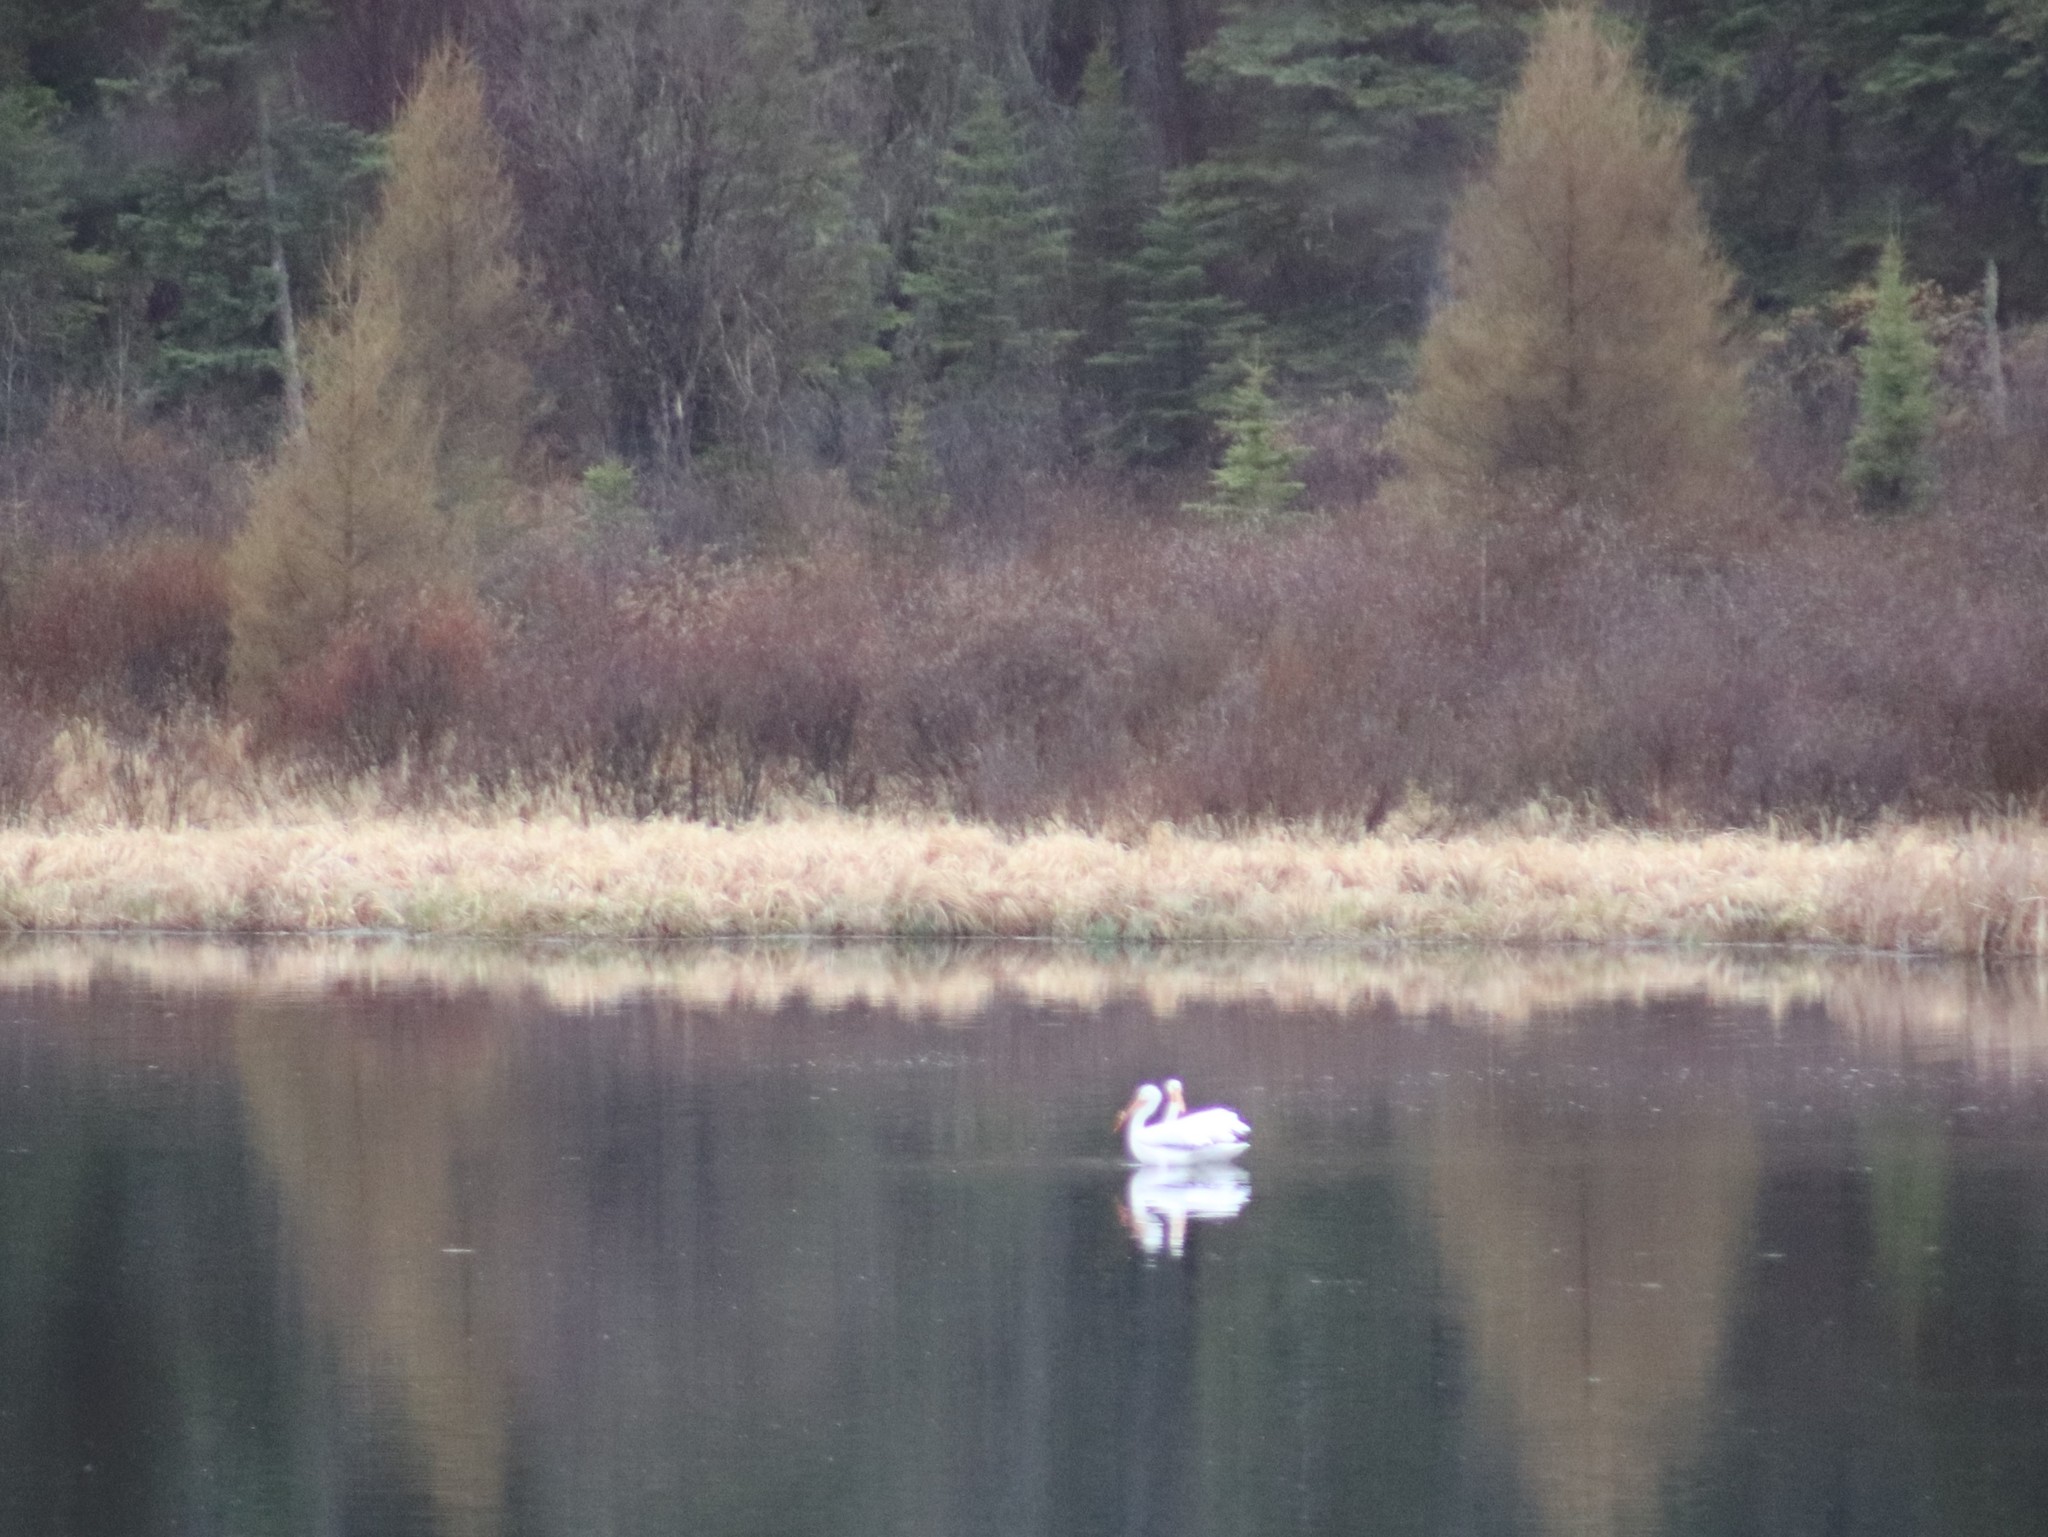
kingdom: Animalia
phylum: Chordata
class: Aves
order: Pelecaniformes
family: Pelecanidae
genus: Pelecanus
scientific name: Pelecanus erythrorhynchos
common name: American white pelican
